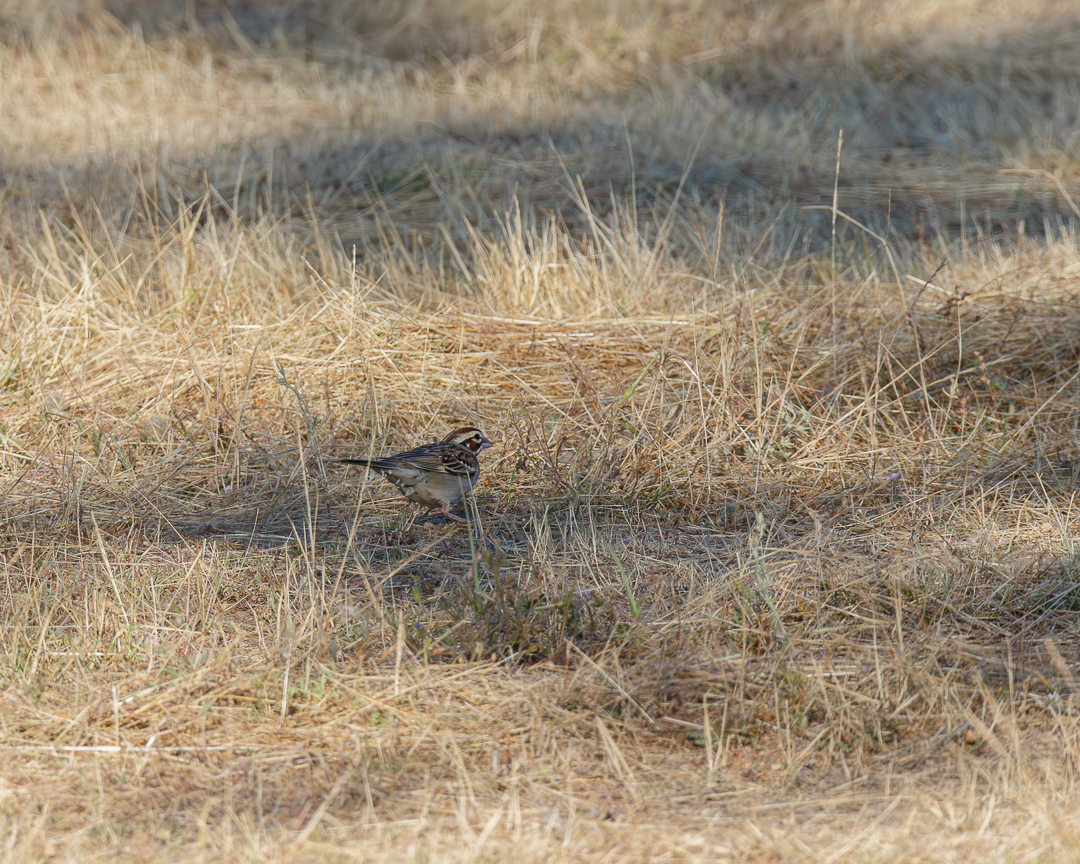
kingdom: Animalia
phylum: Chordata
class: Aves
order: Passeriformes
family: Passerellidae
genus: Chondestes
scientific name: Chondestes grammacus
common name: Lark sparrow
